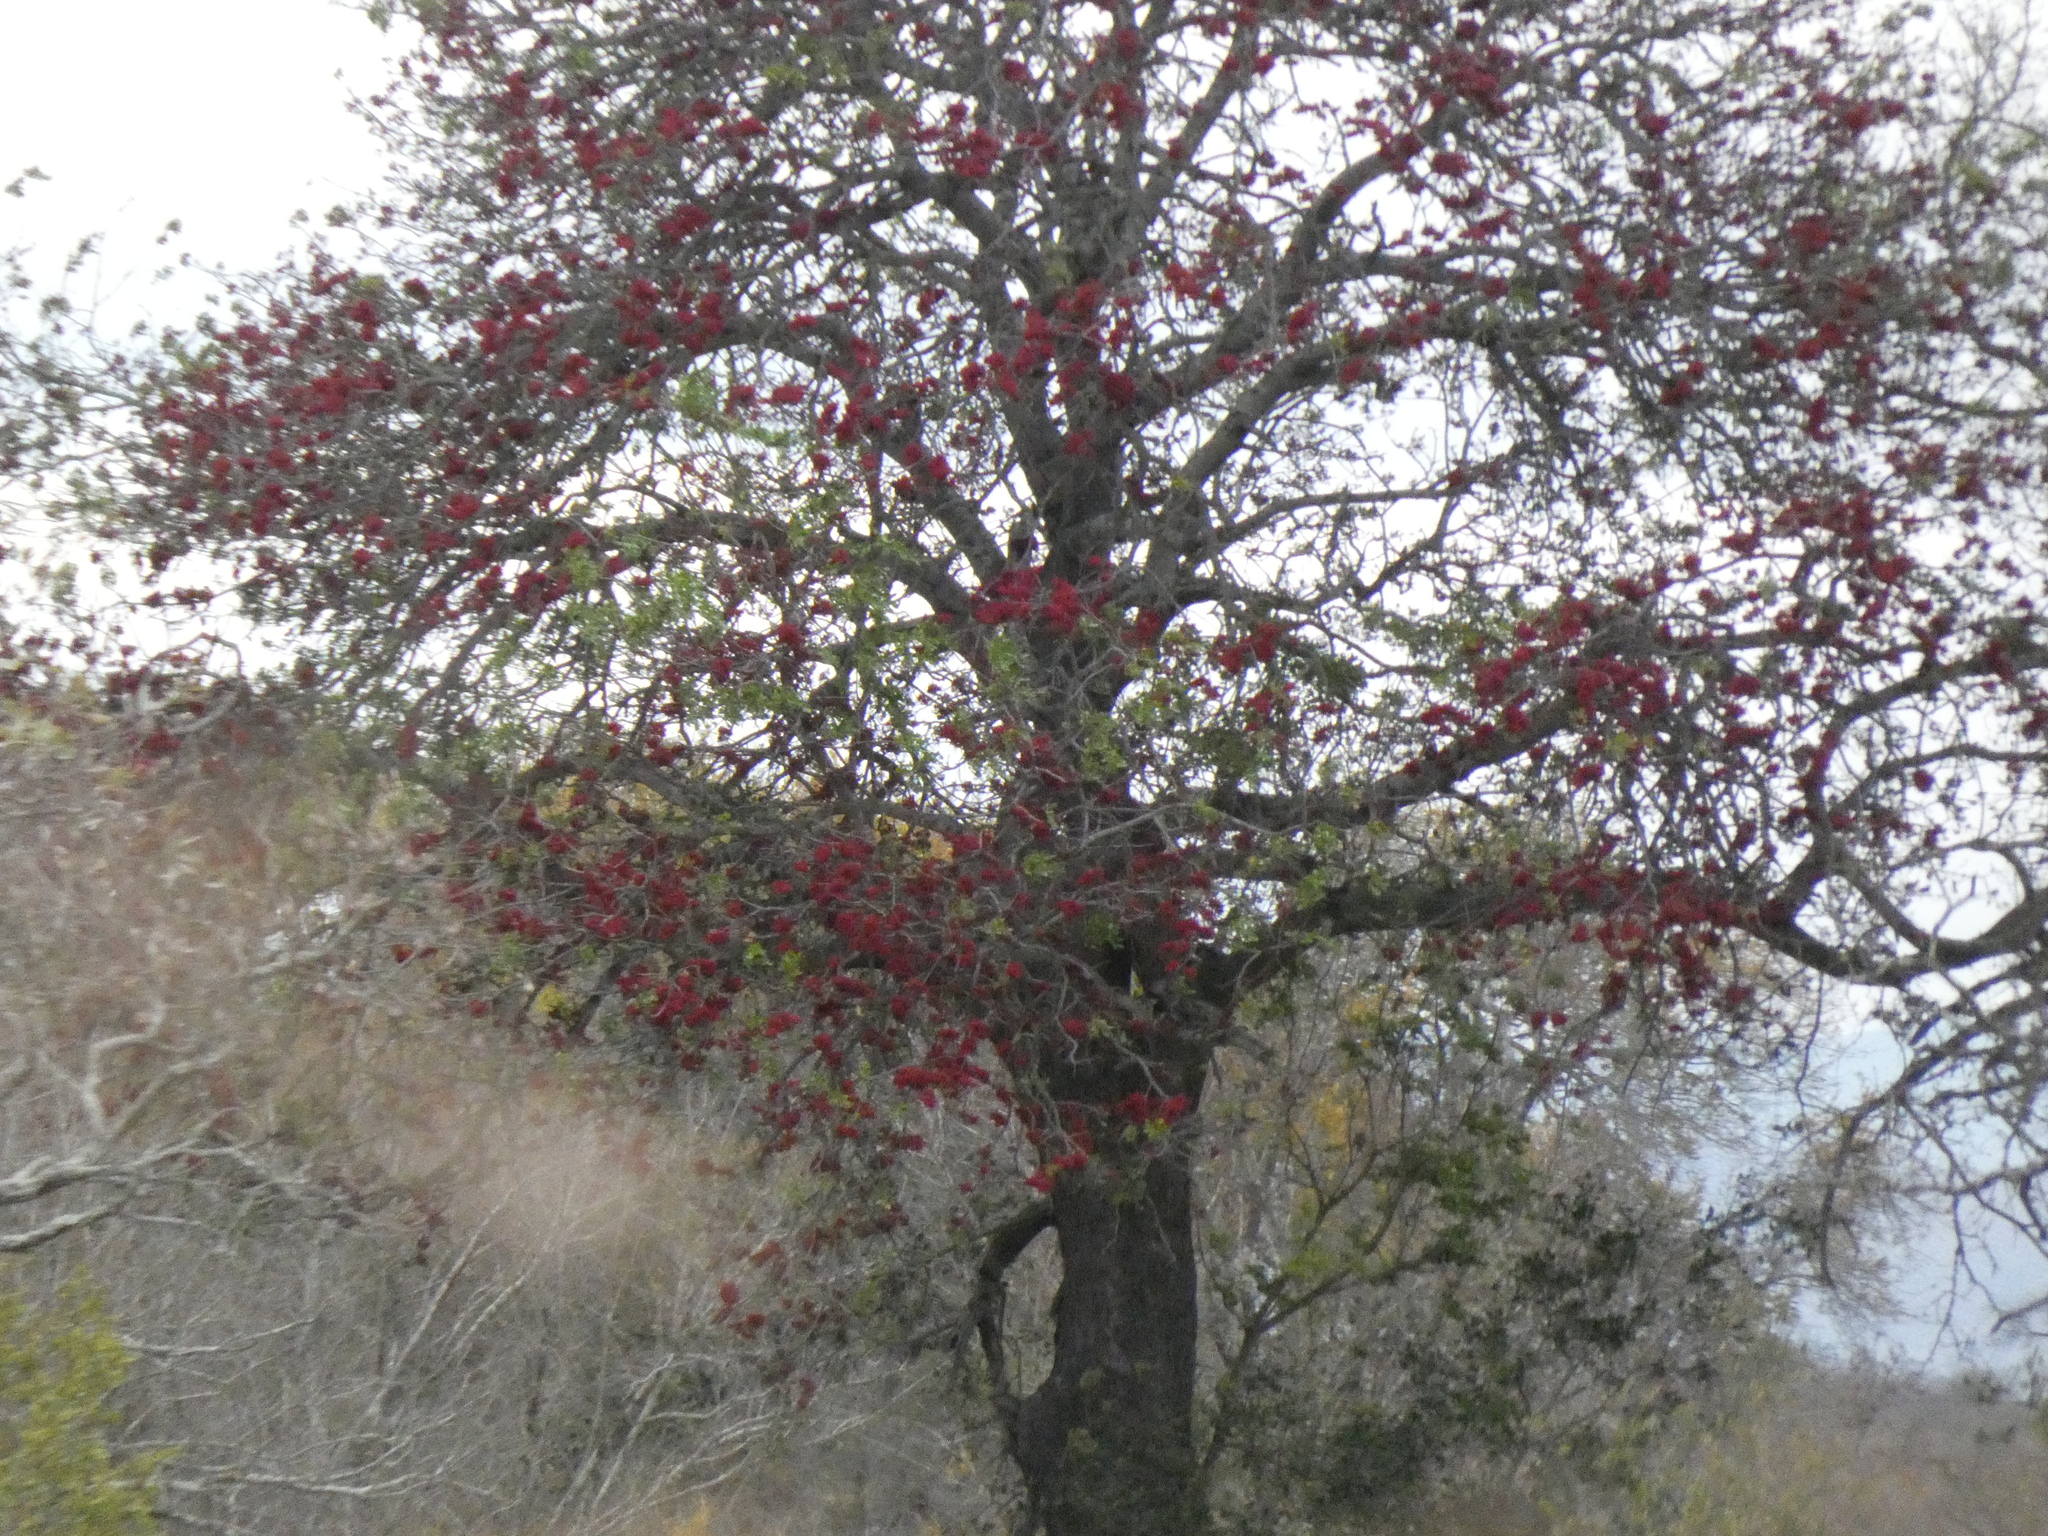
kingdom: Plantae
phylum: Tracheophyta
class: Magnoliopsida
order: Fabales
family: Fabaceae
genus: Schotia
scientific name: Schotia brachypetala
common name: Weeping boer-bean
